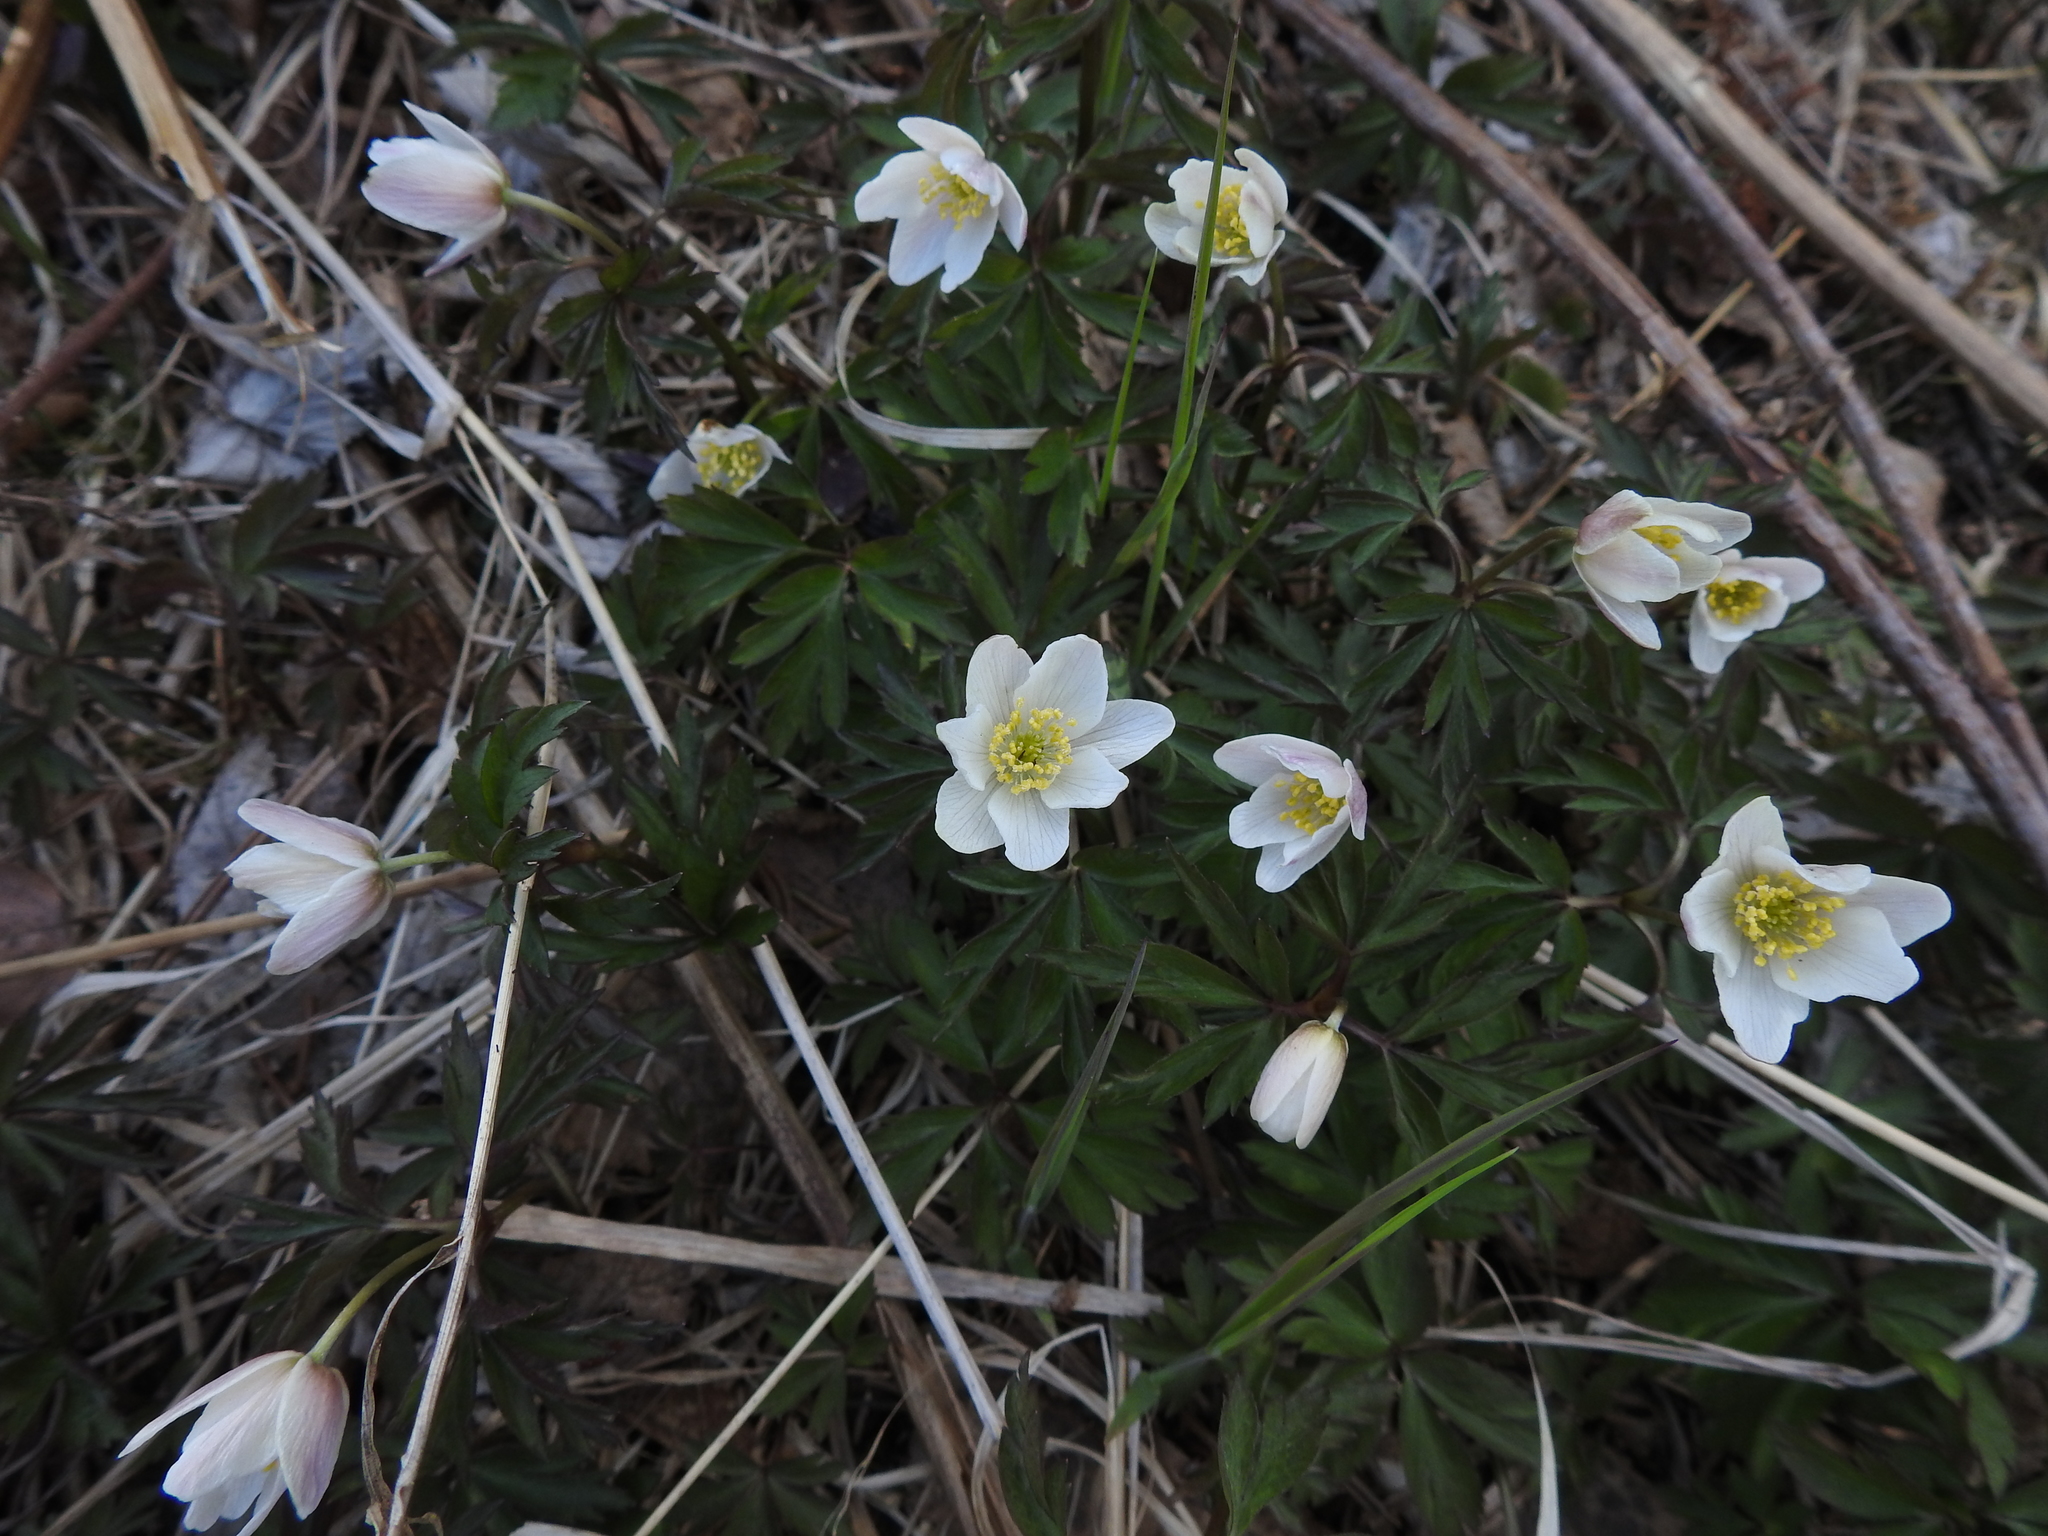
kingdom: Plantae
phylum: Tracheophyta
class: Magnoliopsida
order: Ranunculales
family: Ranunculaceae
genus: Anemone
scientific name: Anemone nemorosa
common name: Wood anemone
